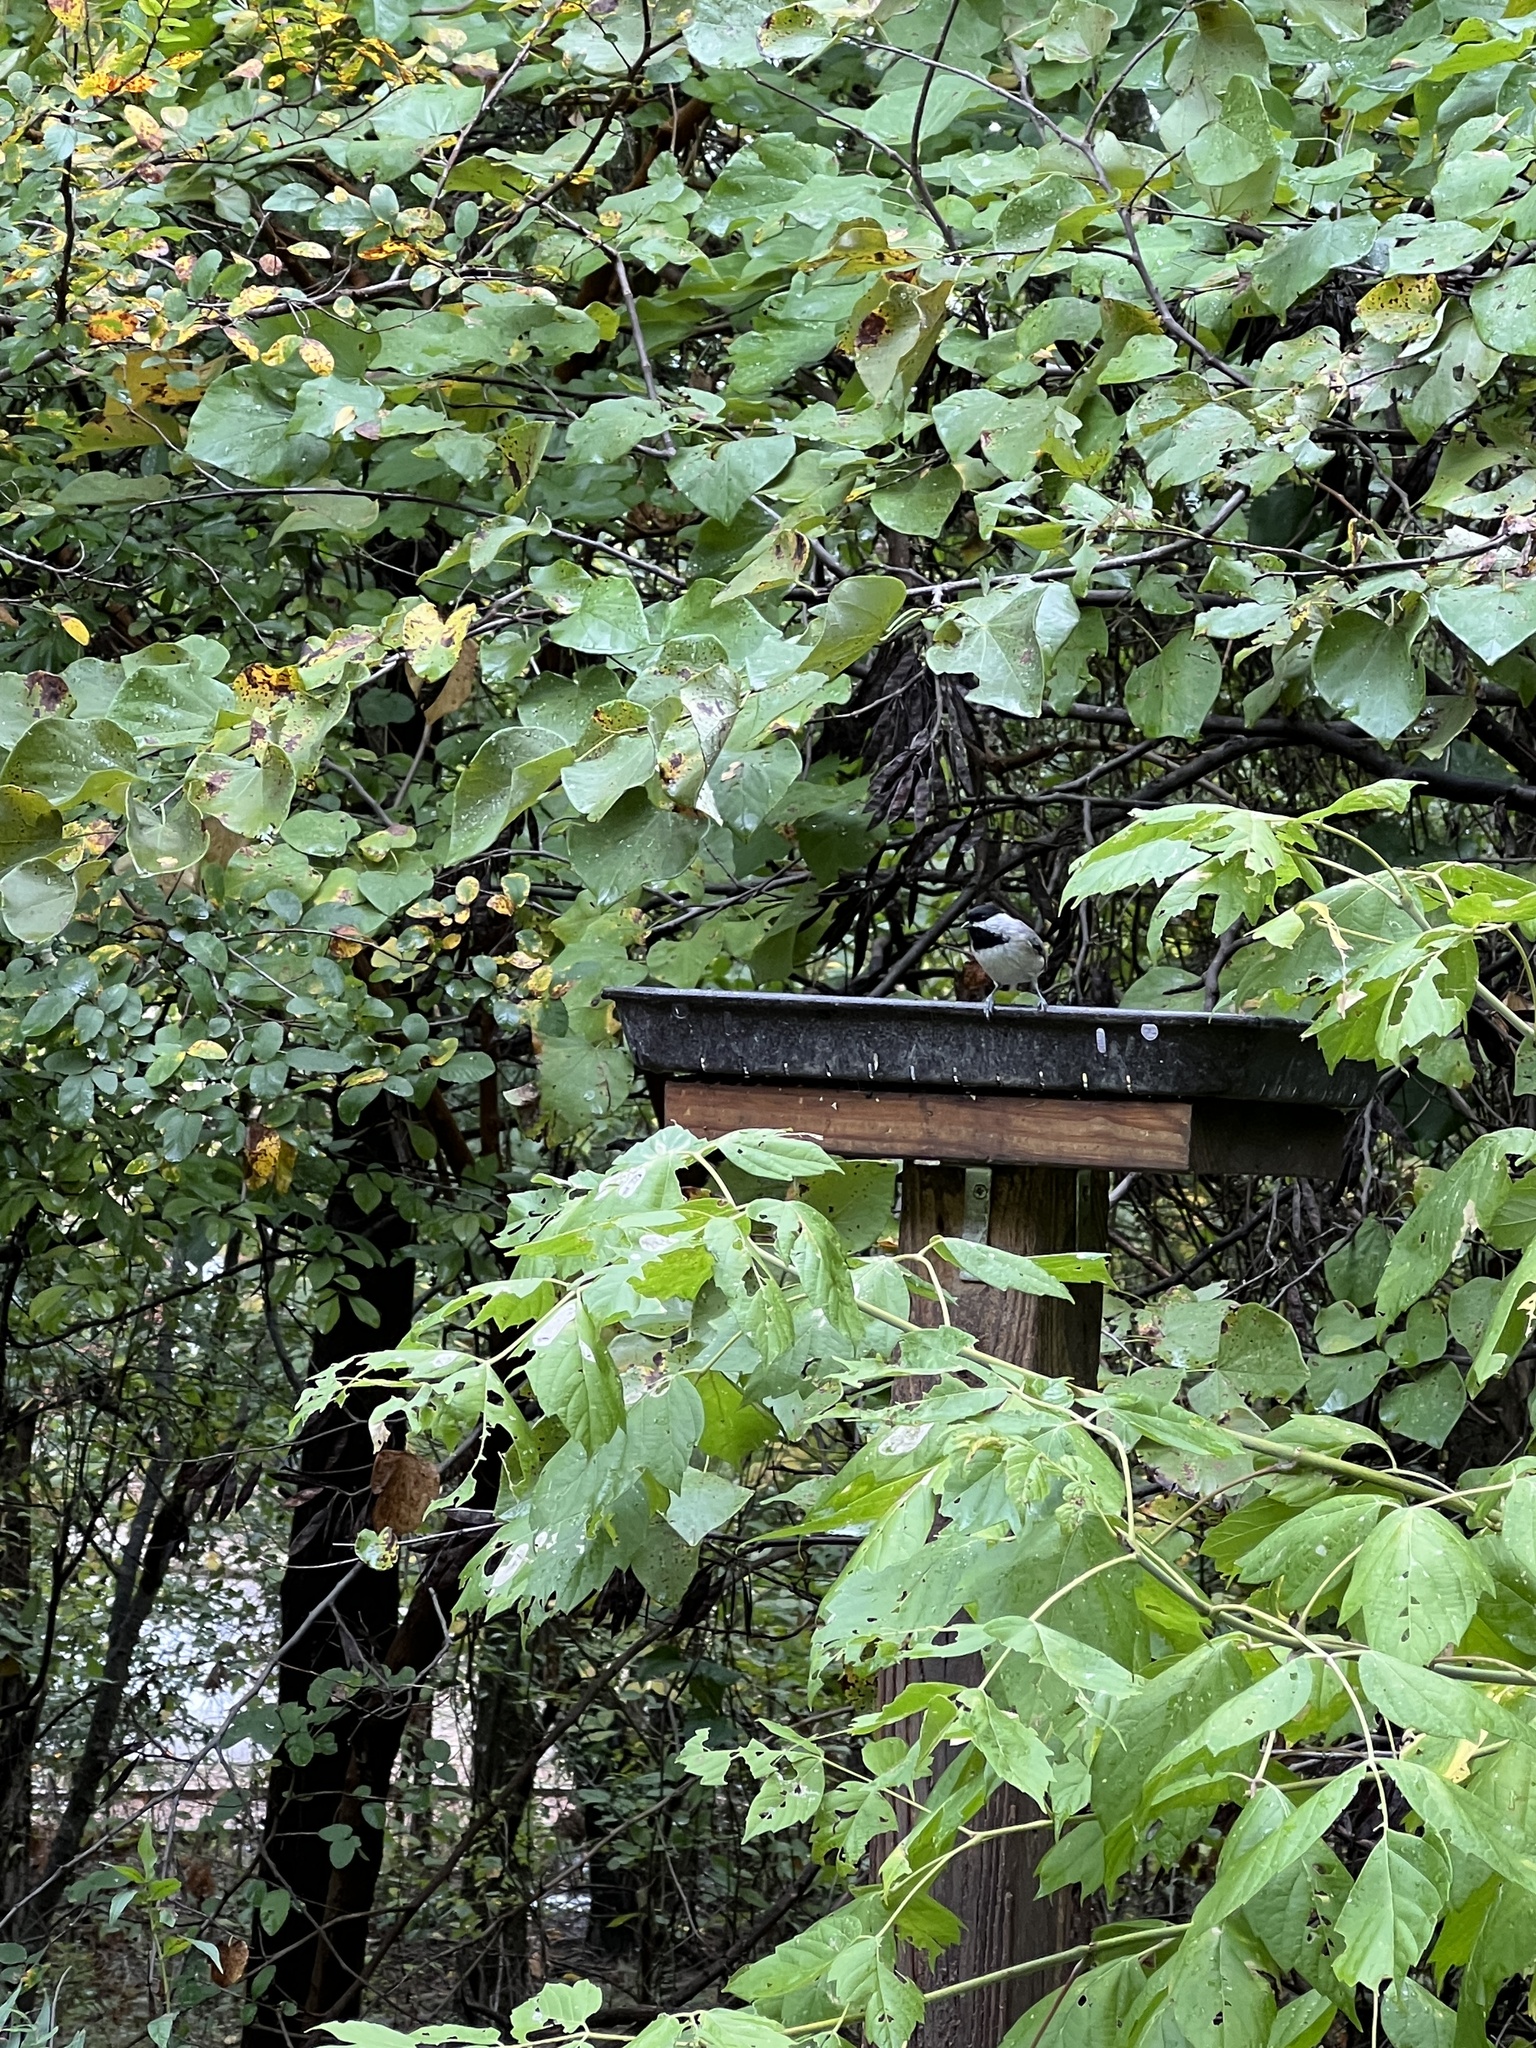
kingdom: Animalia
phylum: Chordata
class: Aves
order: Passeriformes
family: Paridae
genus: Poecile
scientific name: Poecile carolinensis
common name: Carolina chickadee
